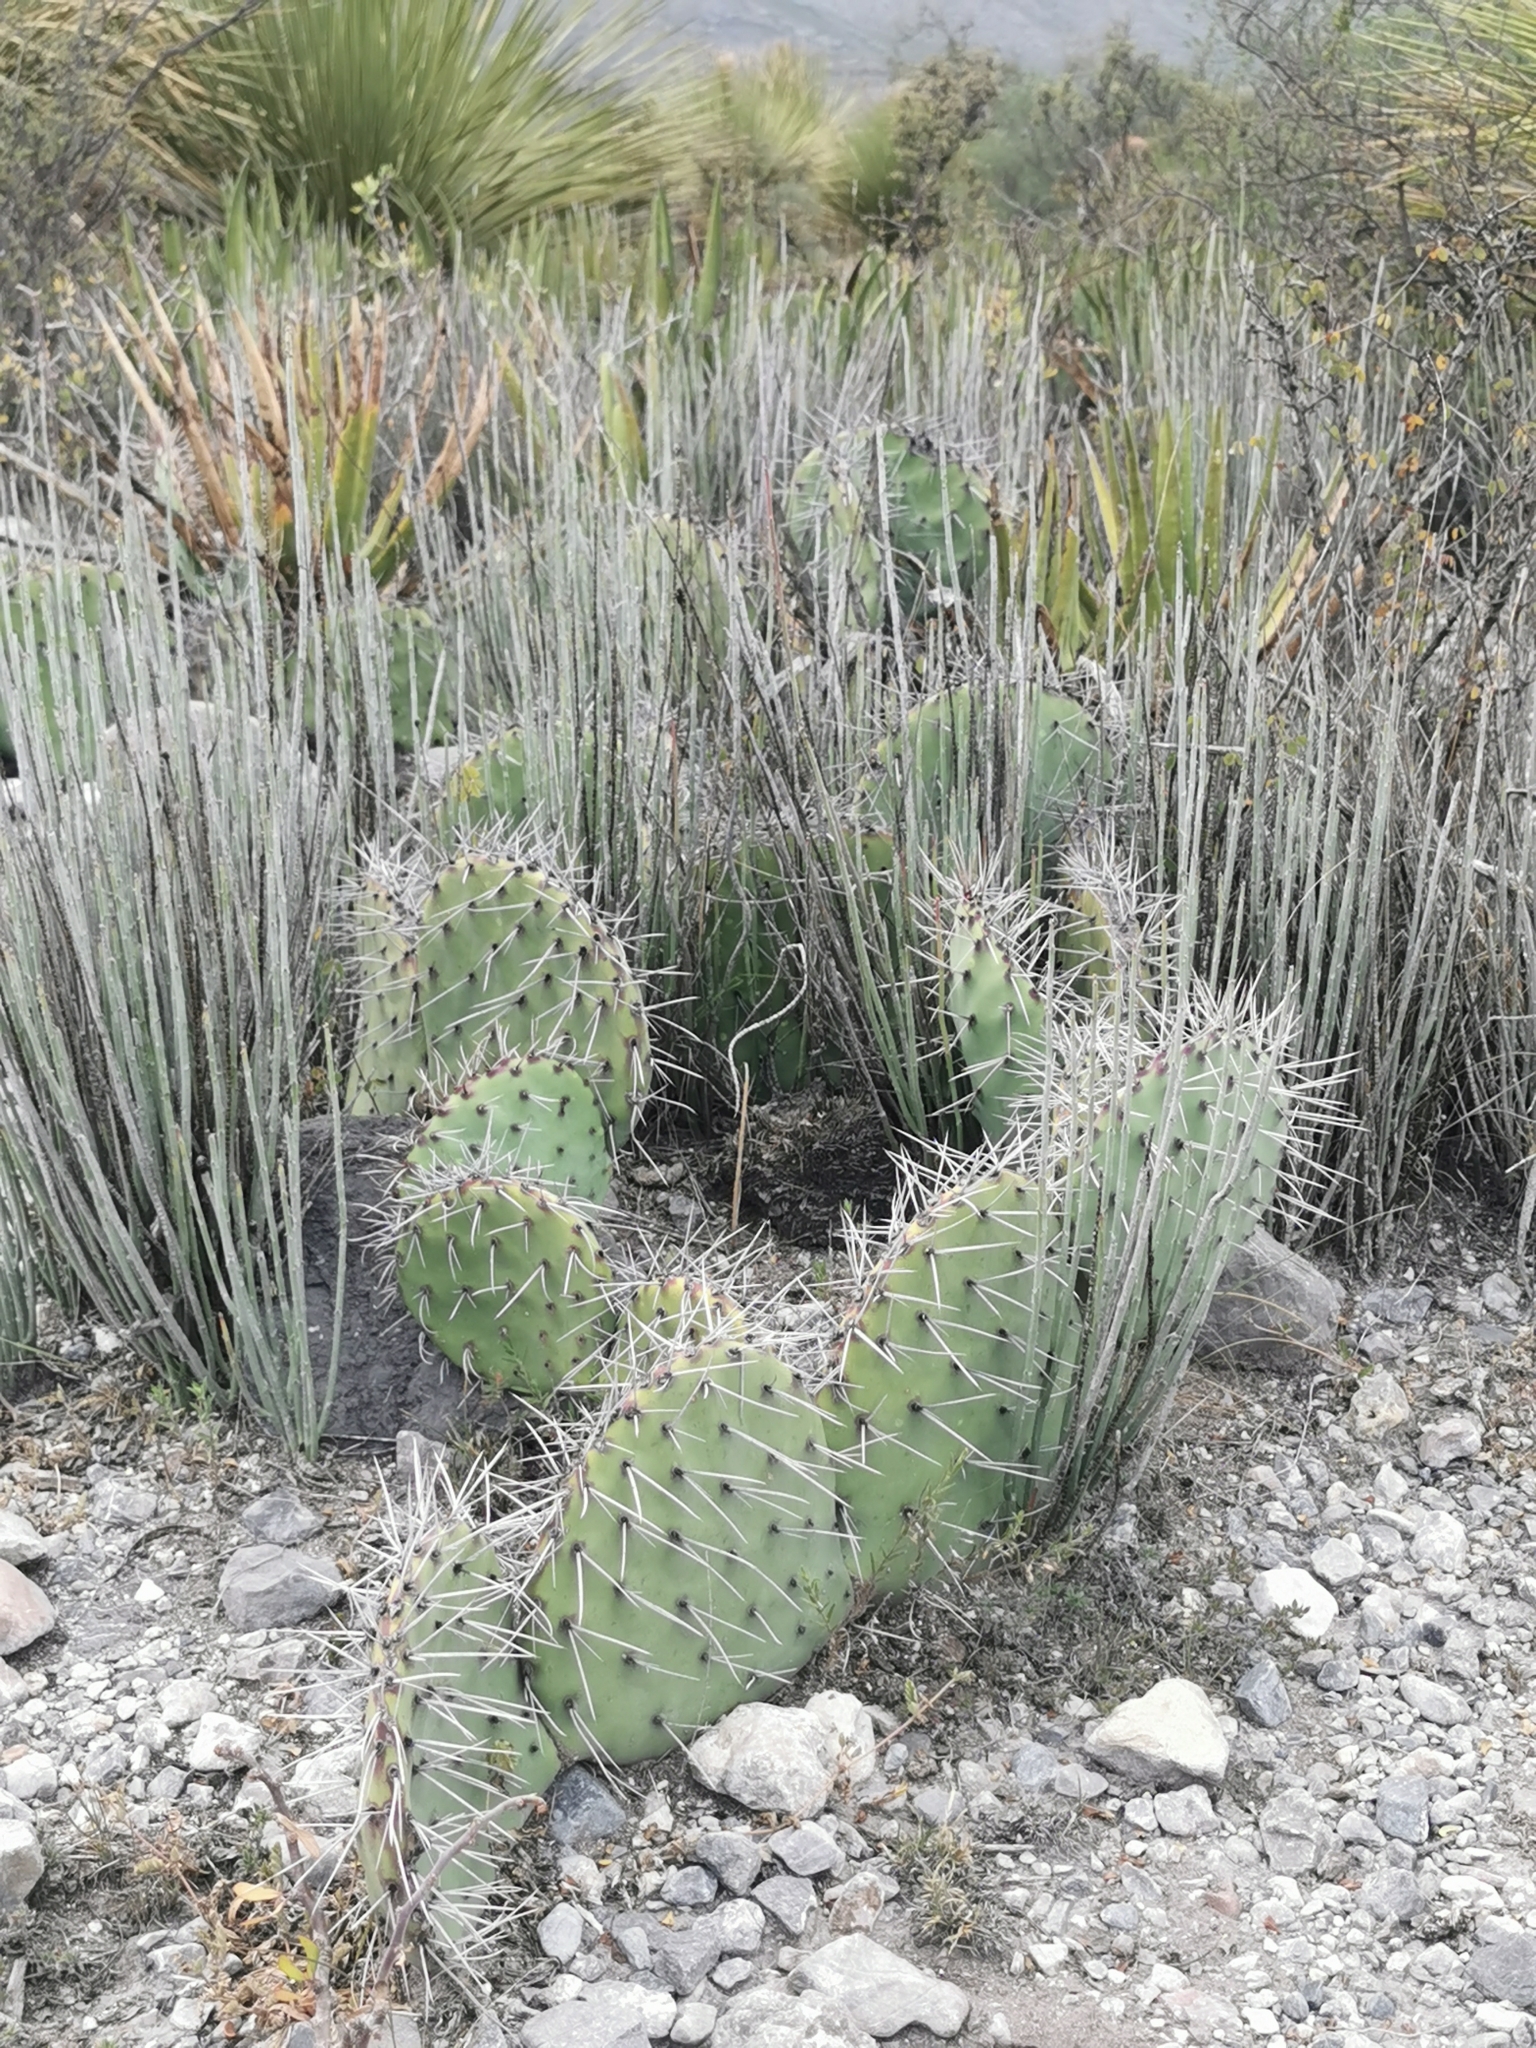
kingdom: Plantae
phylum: Tracheophyta
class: Magnoliopsida
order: Malpighiales
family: Euphorbiaceae
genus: Euphorbia
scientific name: Euphorbia antisyphilitica
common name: Candelilla
